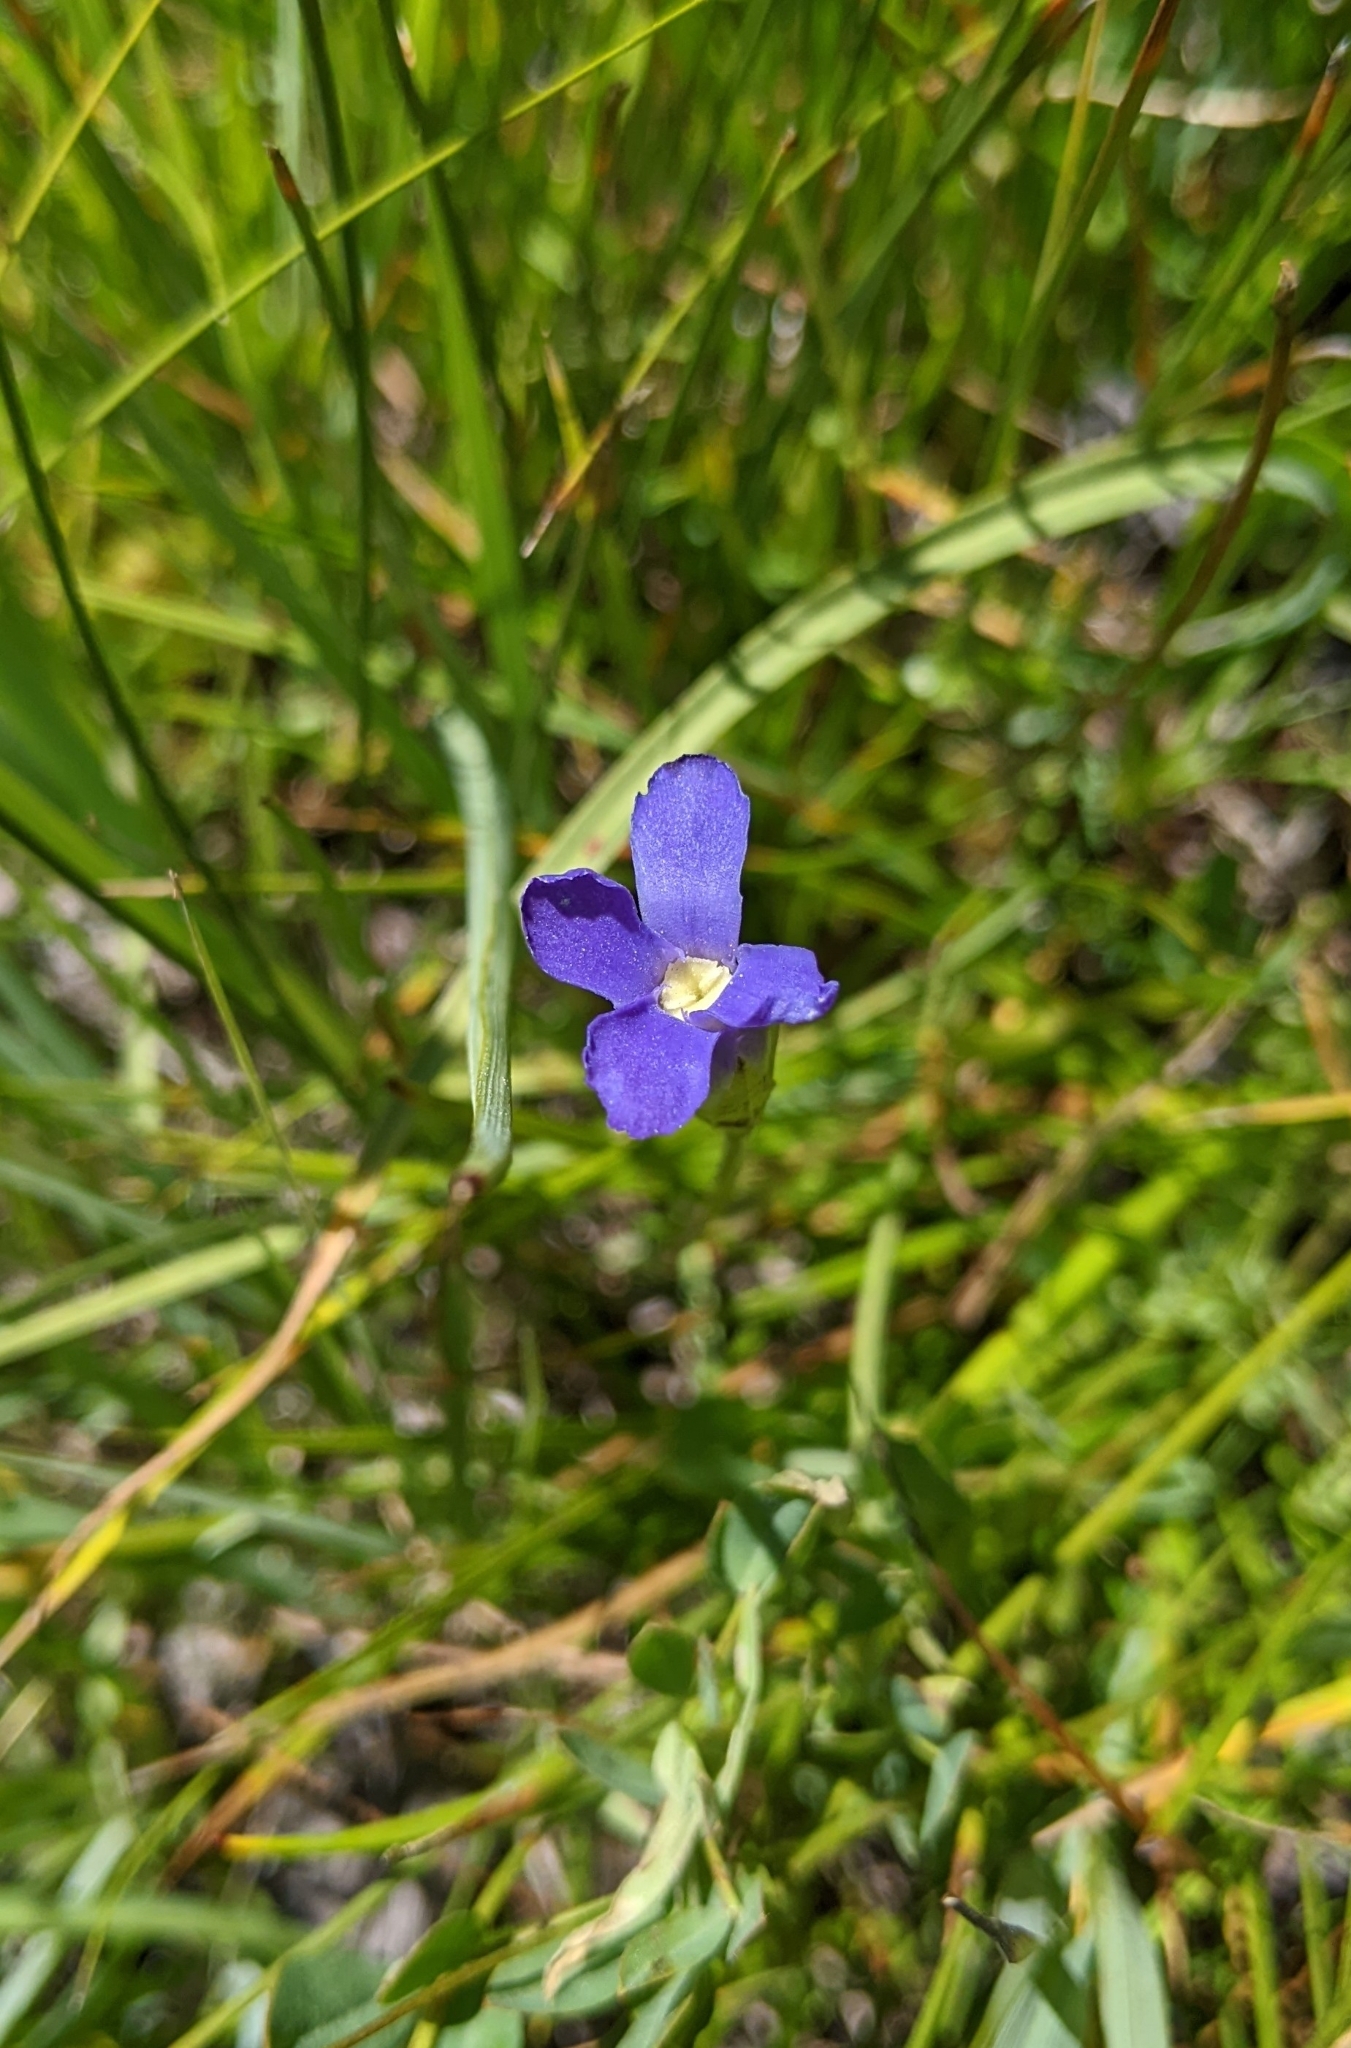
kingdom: Plantae
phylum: Tracheophyta
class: Magnoliopsida
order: Gentianales
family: Gentianaceae
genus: Gentianopsis
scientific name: Gentianopsis simplex
